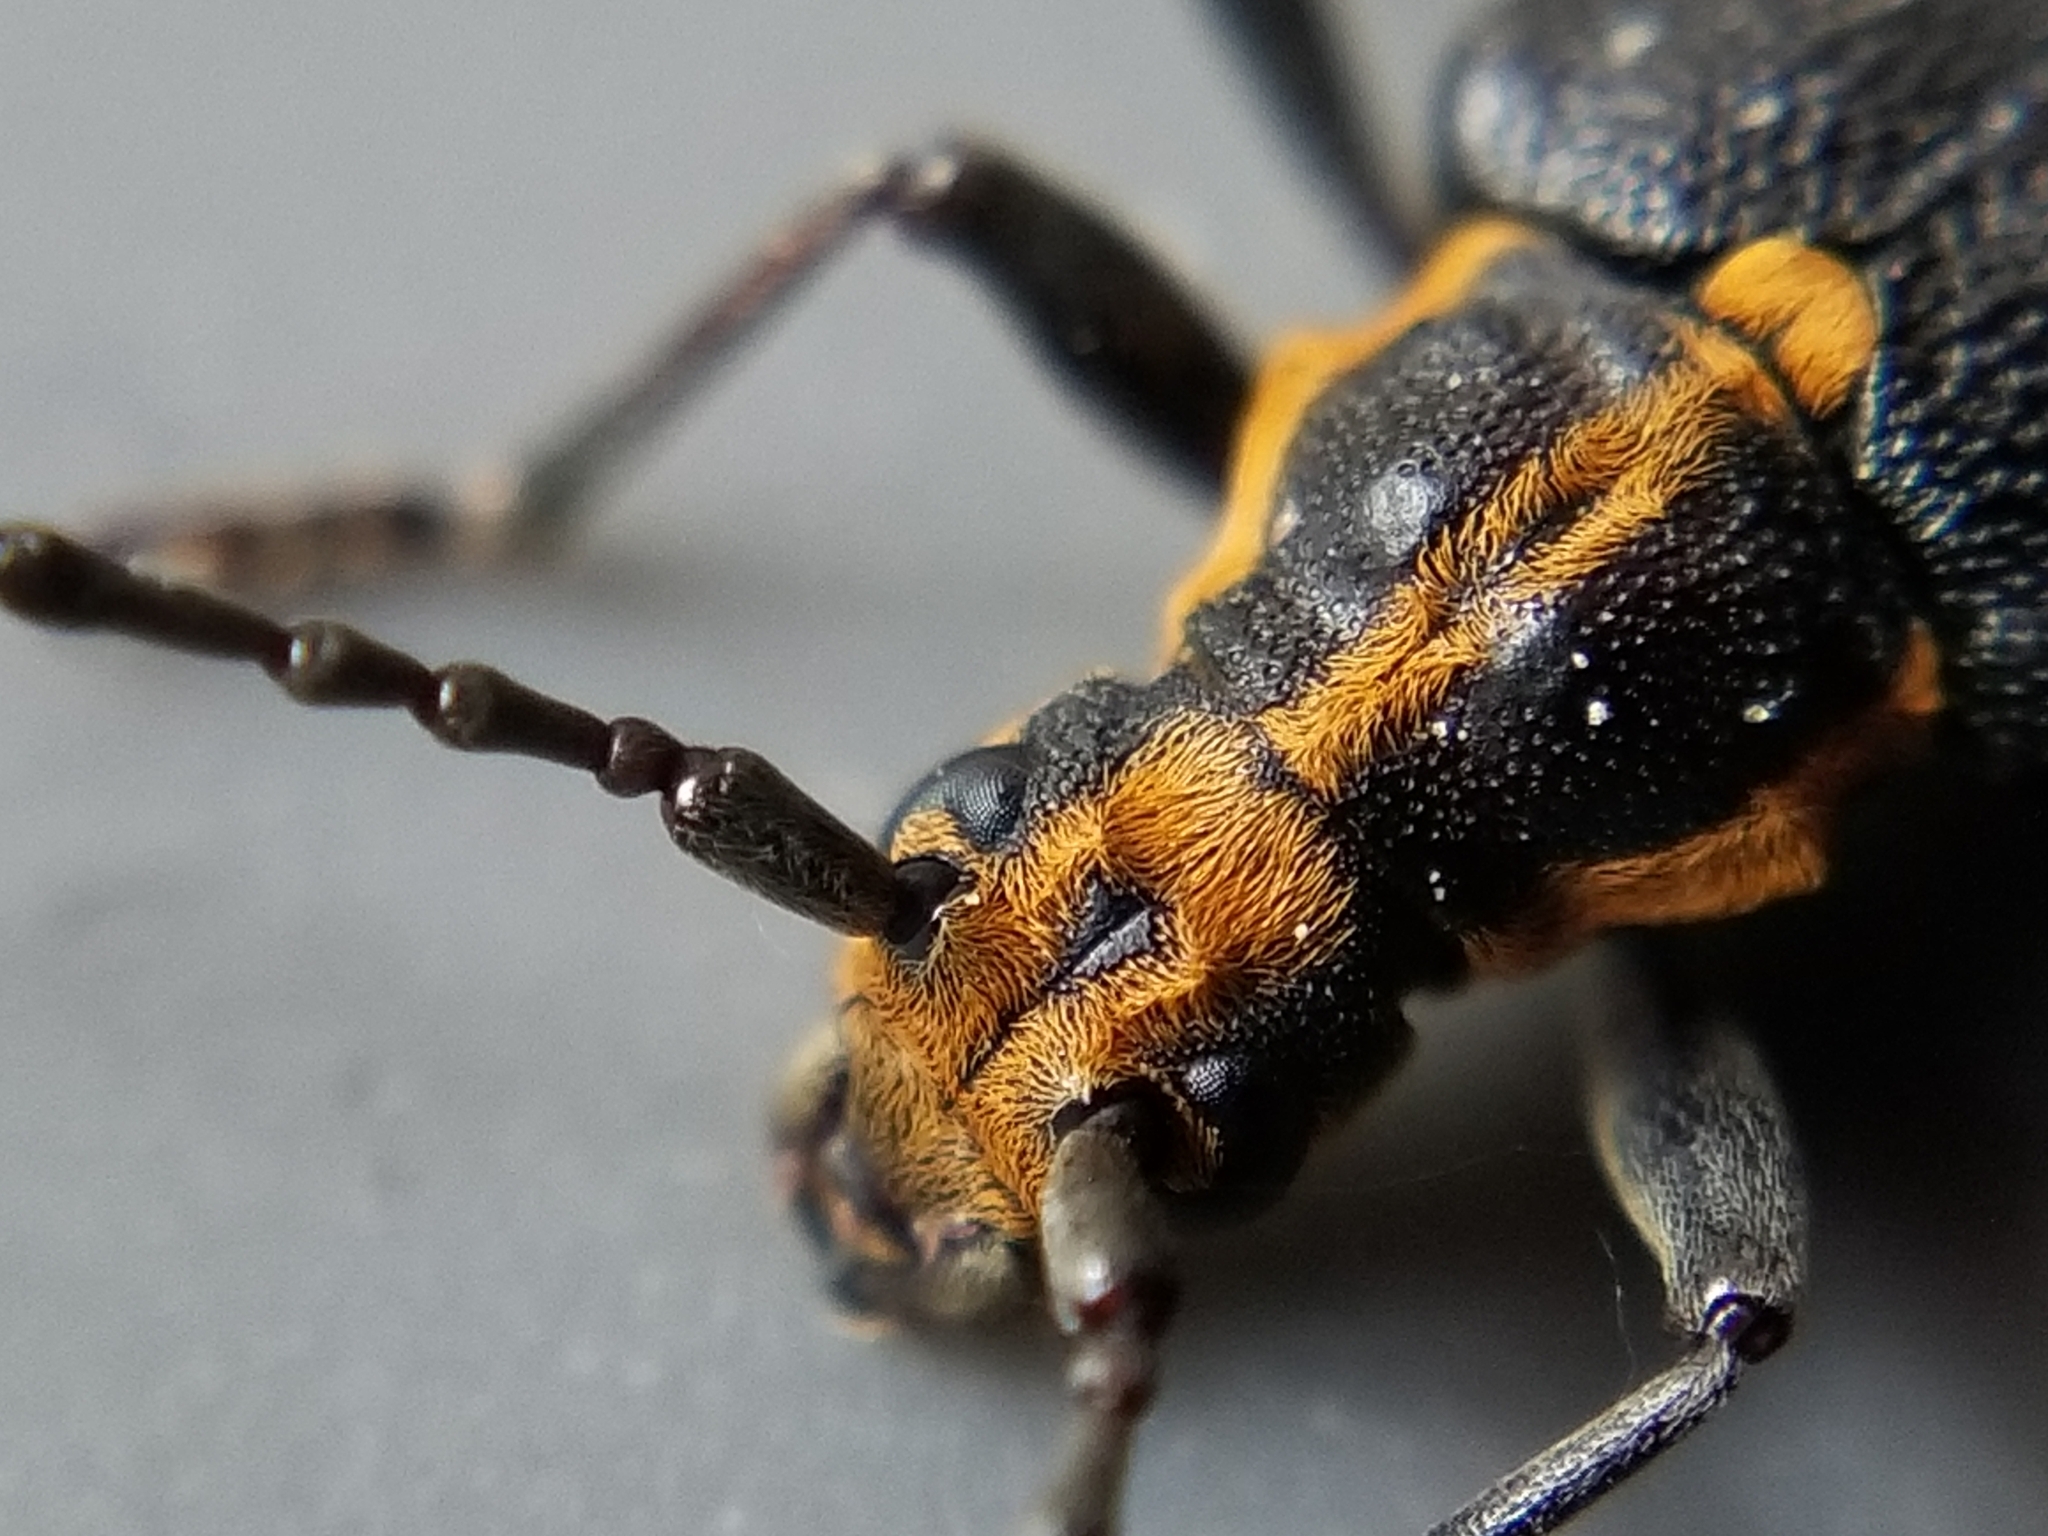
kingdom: Animalia
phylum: Arthropoda
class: Insecta
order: Coleoptera
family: Cerambycidae
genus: Enoploderes
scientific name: Enoploderes vitticollis
